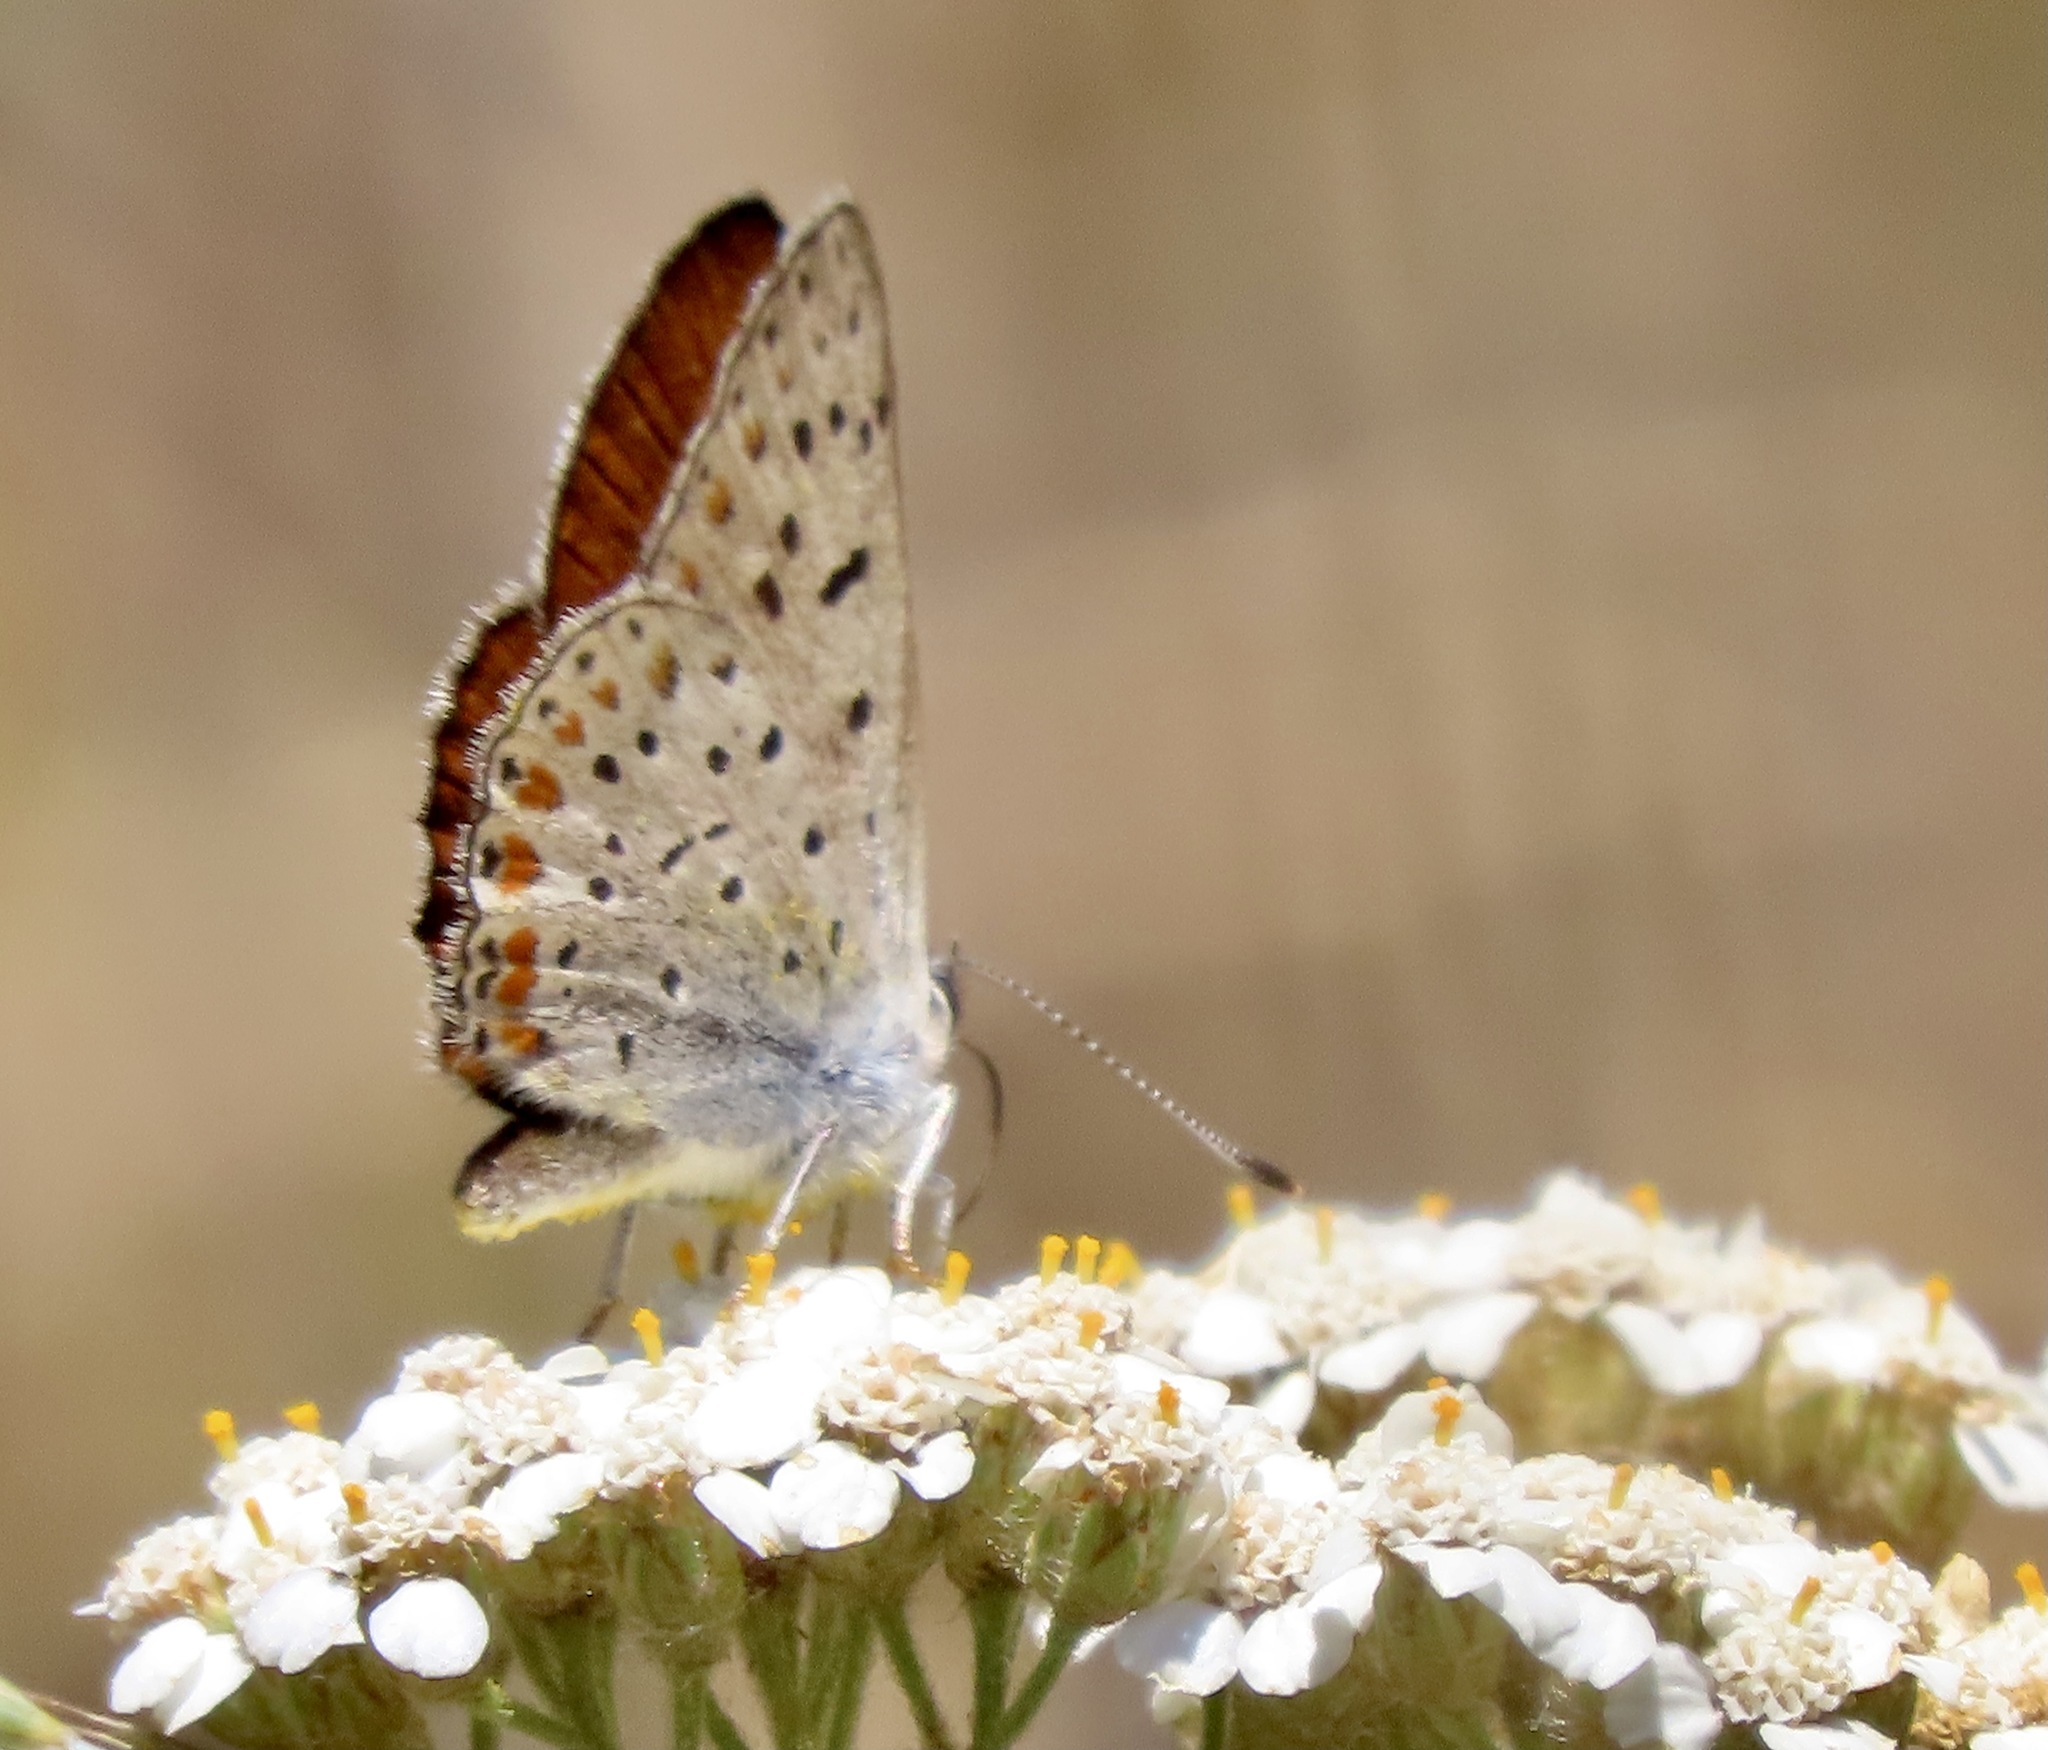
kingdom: Animalia
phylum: Arthropoda
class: Insecta
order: Lepidoptera
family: Lycaenidae
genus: Tharsalea
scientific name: Tharsalea gorgon
